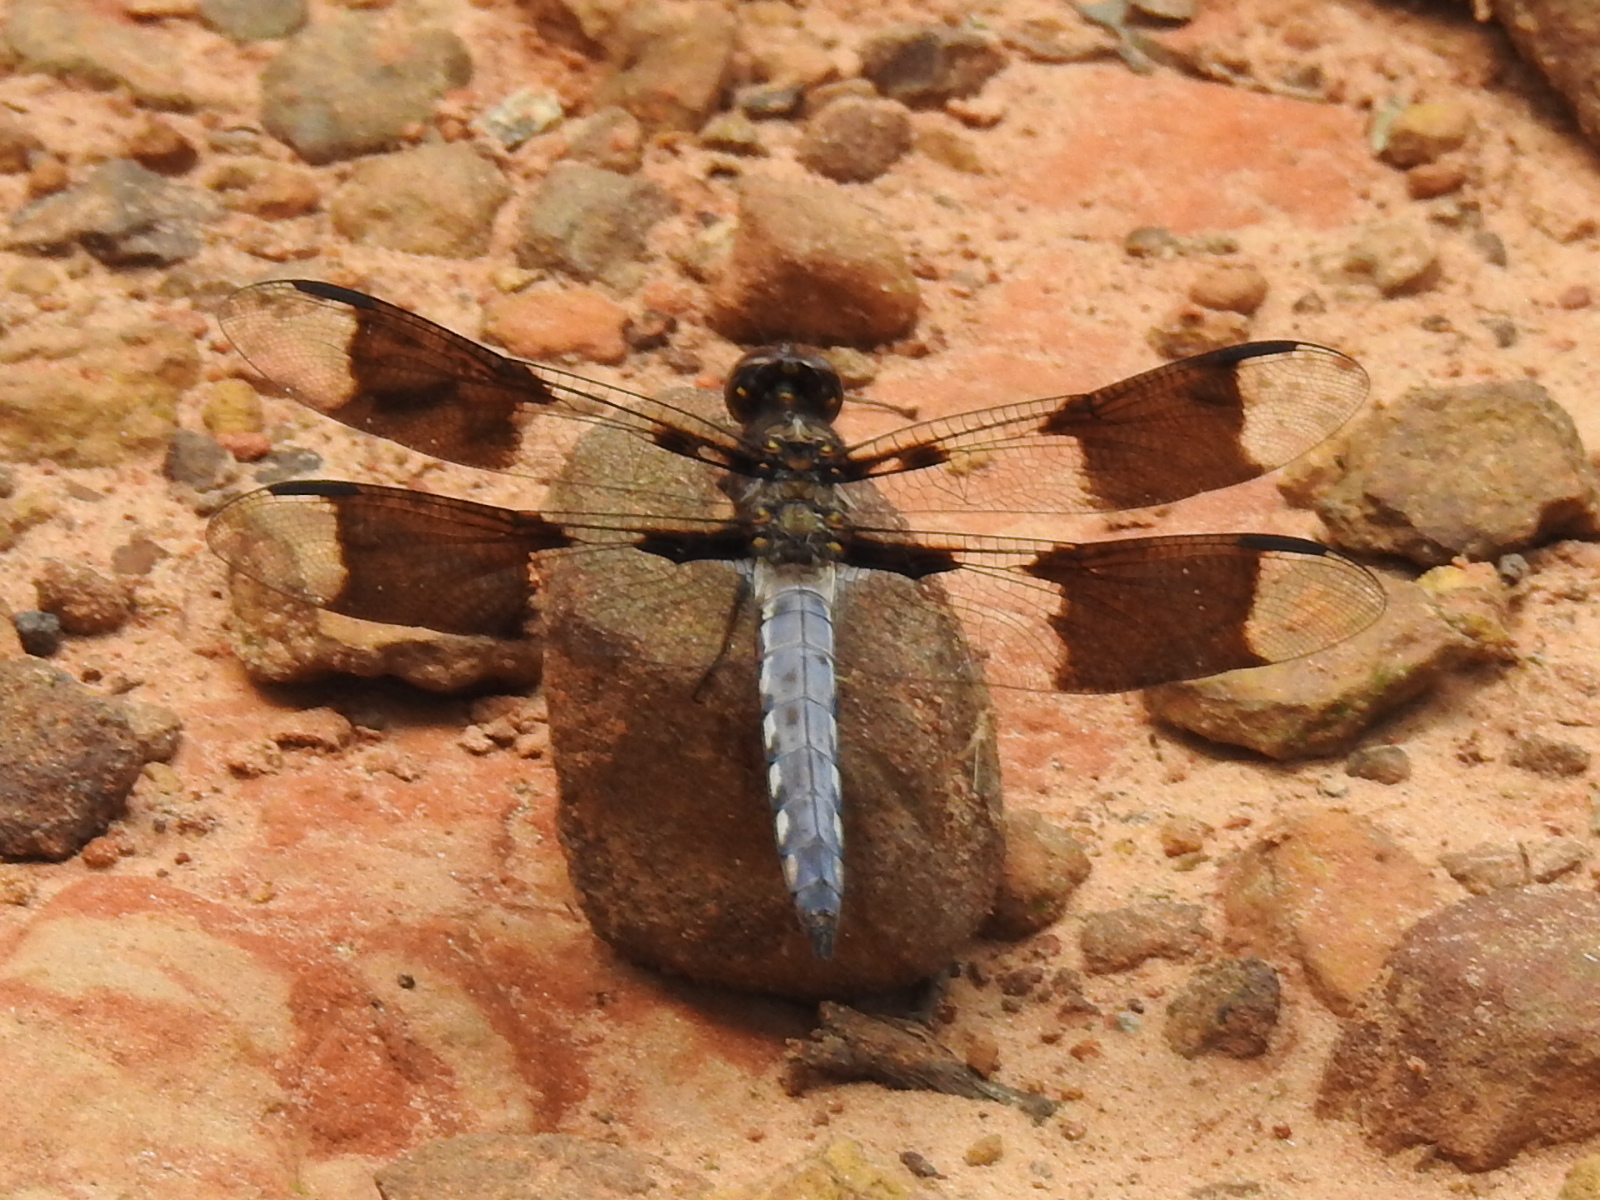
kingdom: Animalia
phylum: Arthropoda
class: Insecta
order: Odonata
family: Libellulidae
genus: Plathemis
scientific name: Plathemis lydia
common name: Common whitetail
